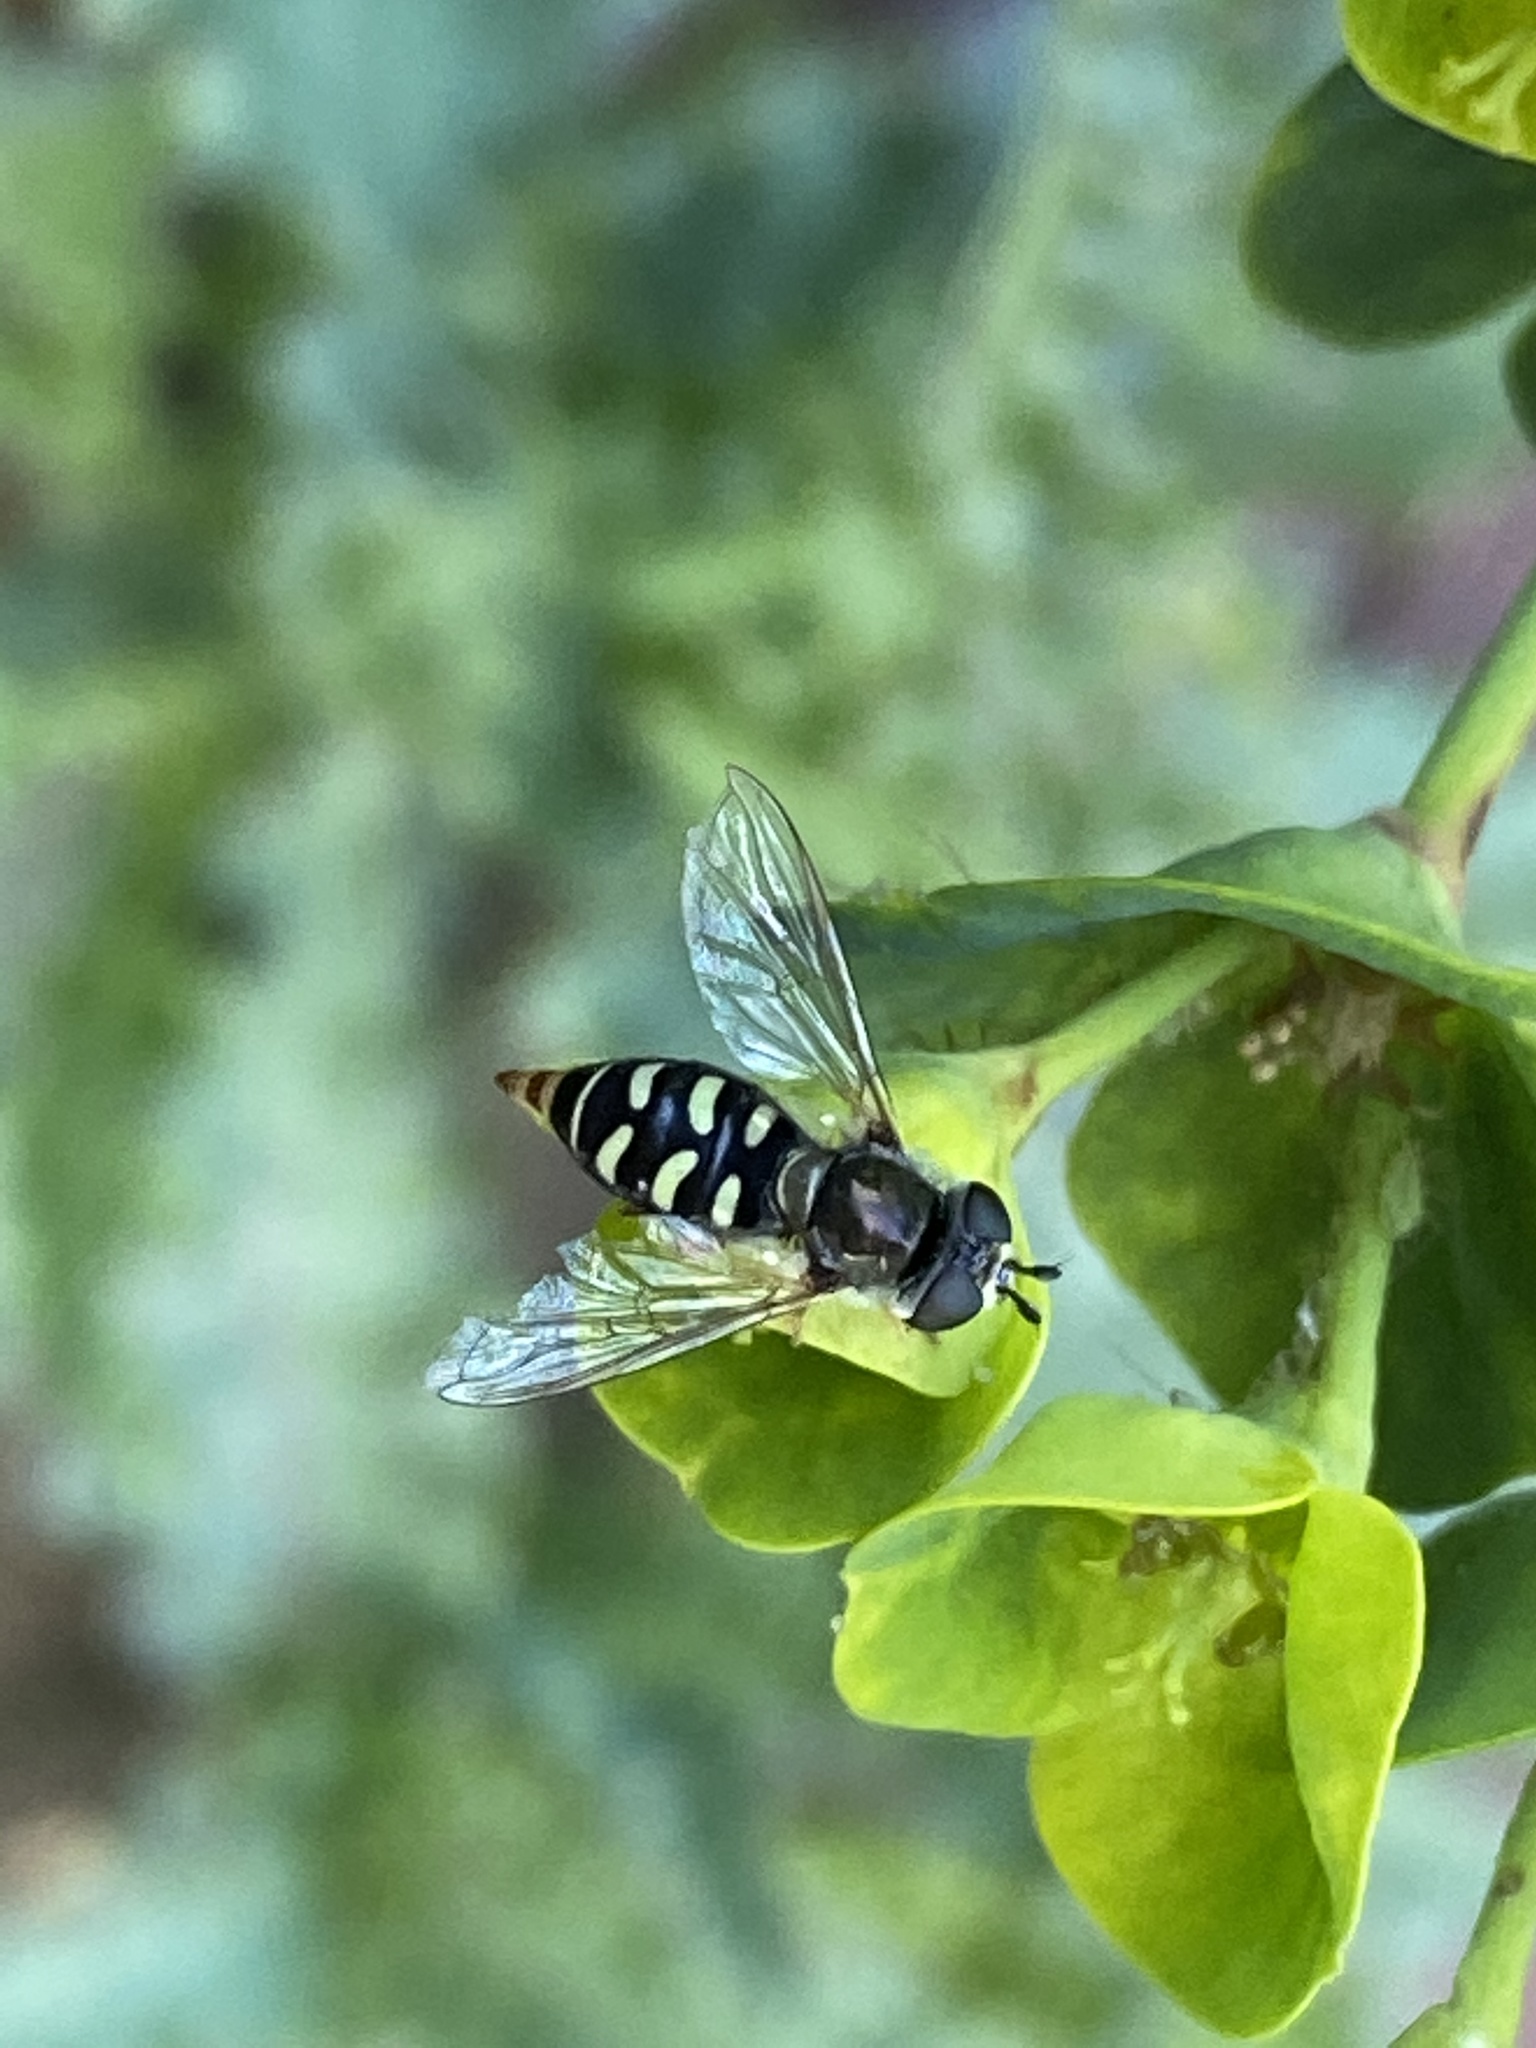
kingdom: Animalia
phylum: Arthropoda
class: Insecta
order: Diptera
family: Syrphidae
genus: Eupeodes
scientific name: Eupeodes volucris
